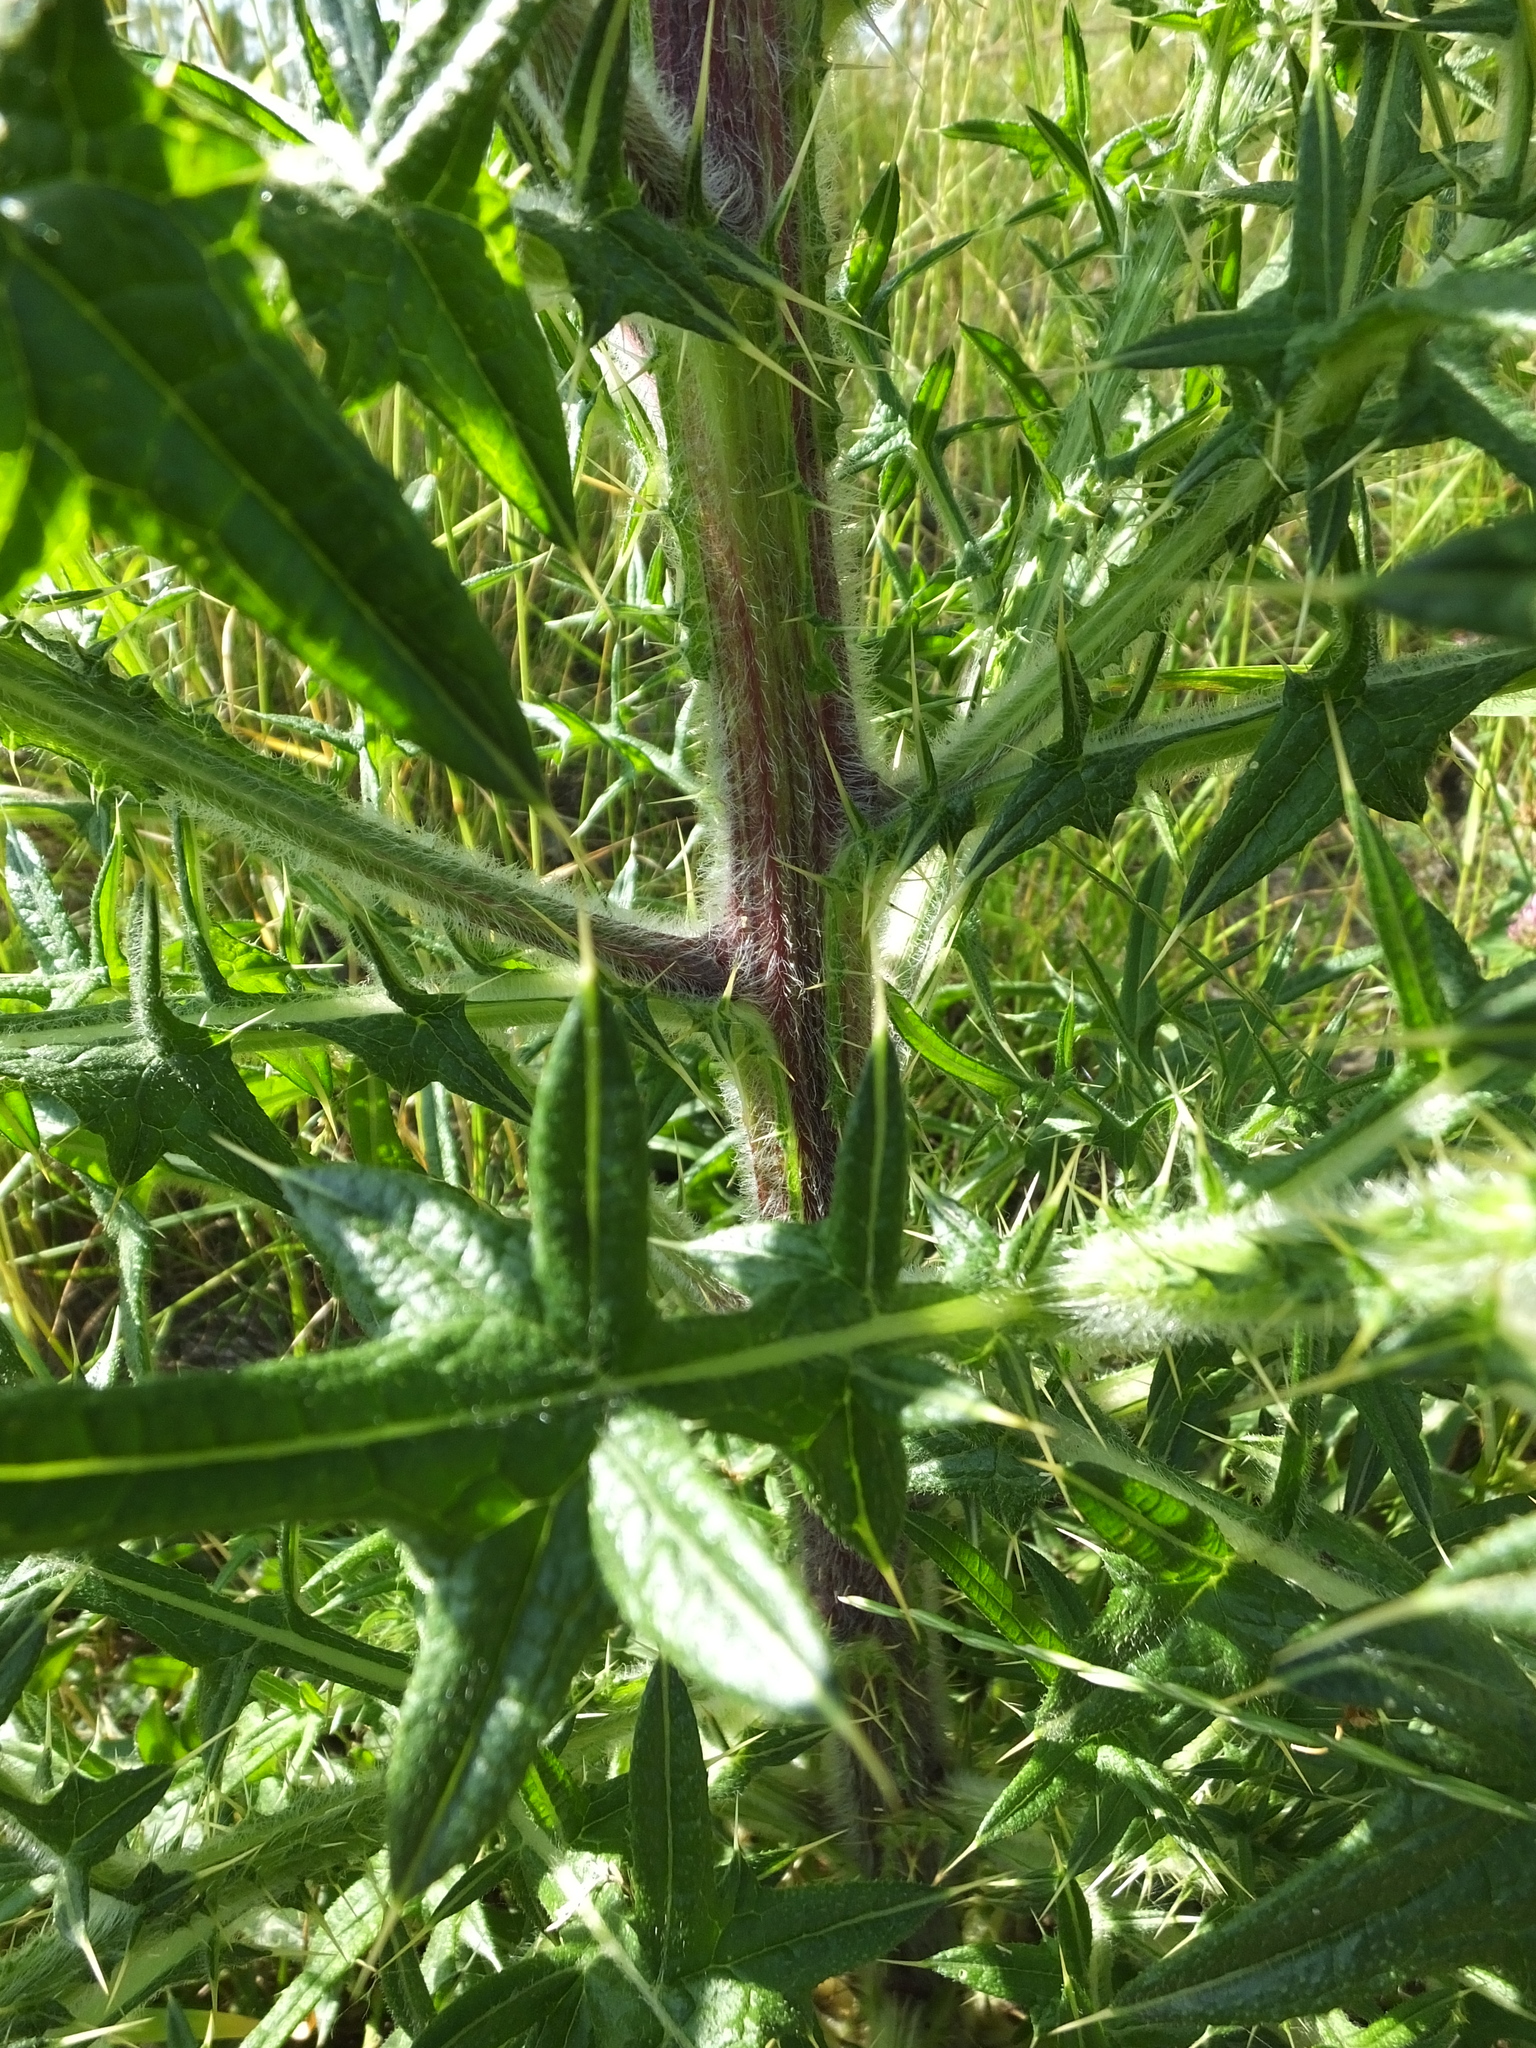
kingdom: Plantae
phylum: Tracheophyta
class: Magnoliopsida
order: Asterales
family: Asteraceae
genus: Cirsium
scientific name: Cirsium vulgare
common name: Bull thistle
